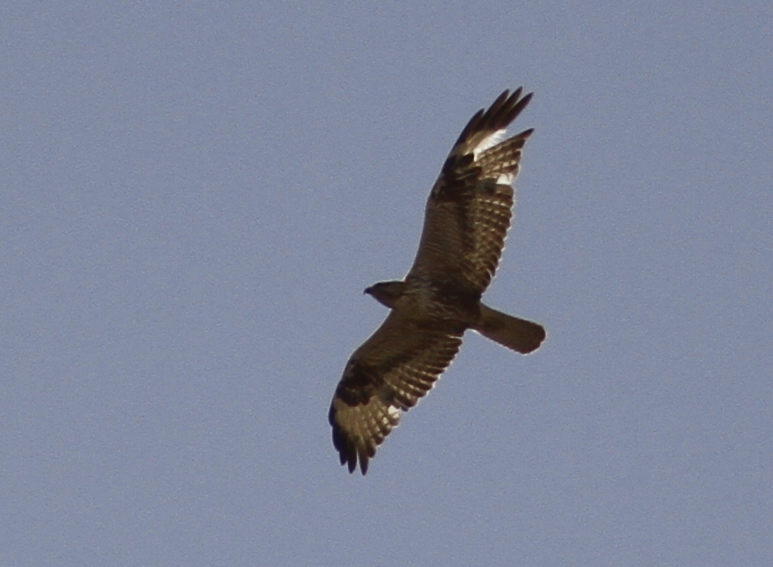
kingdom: Animalia
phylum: Chordata
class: Aves
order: Accipitriformes
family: Accipitridae
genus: Buteo
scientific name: Buteo rufinus
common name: Long-legged buzzard
